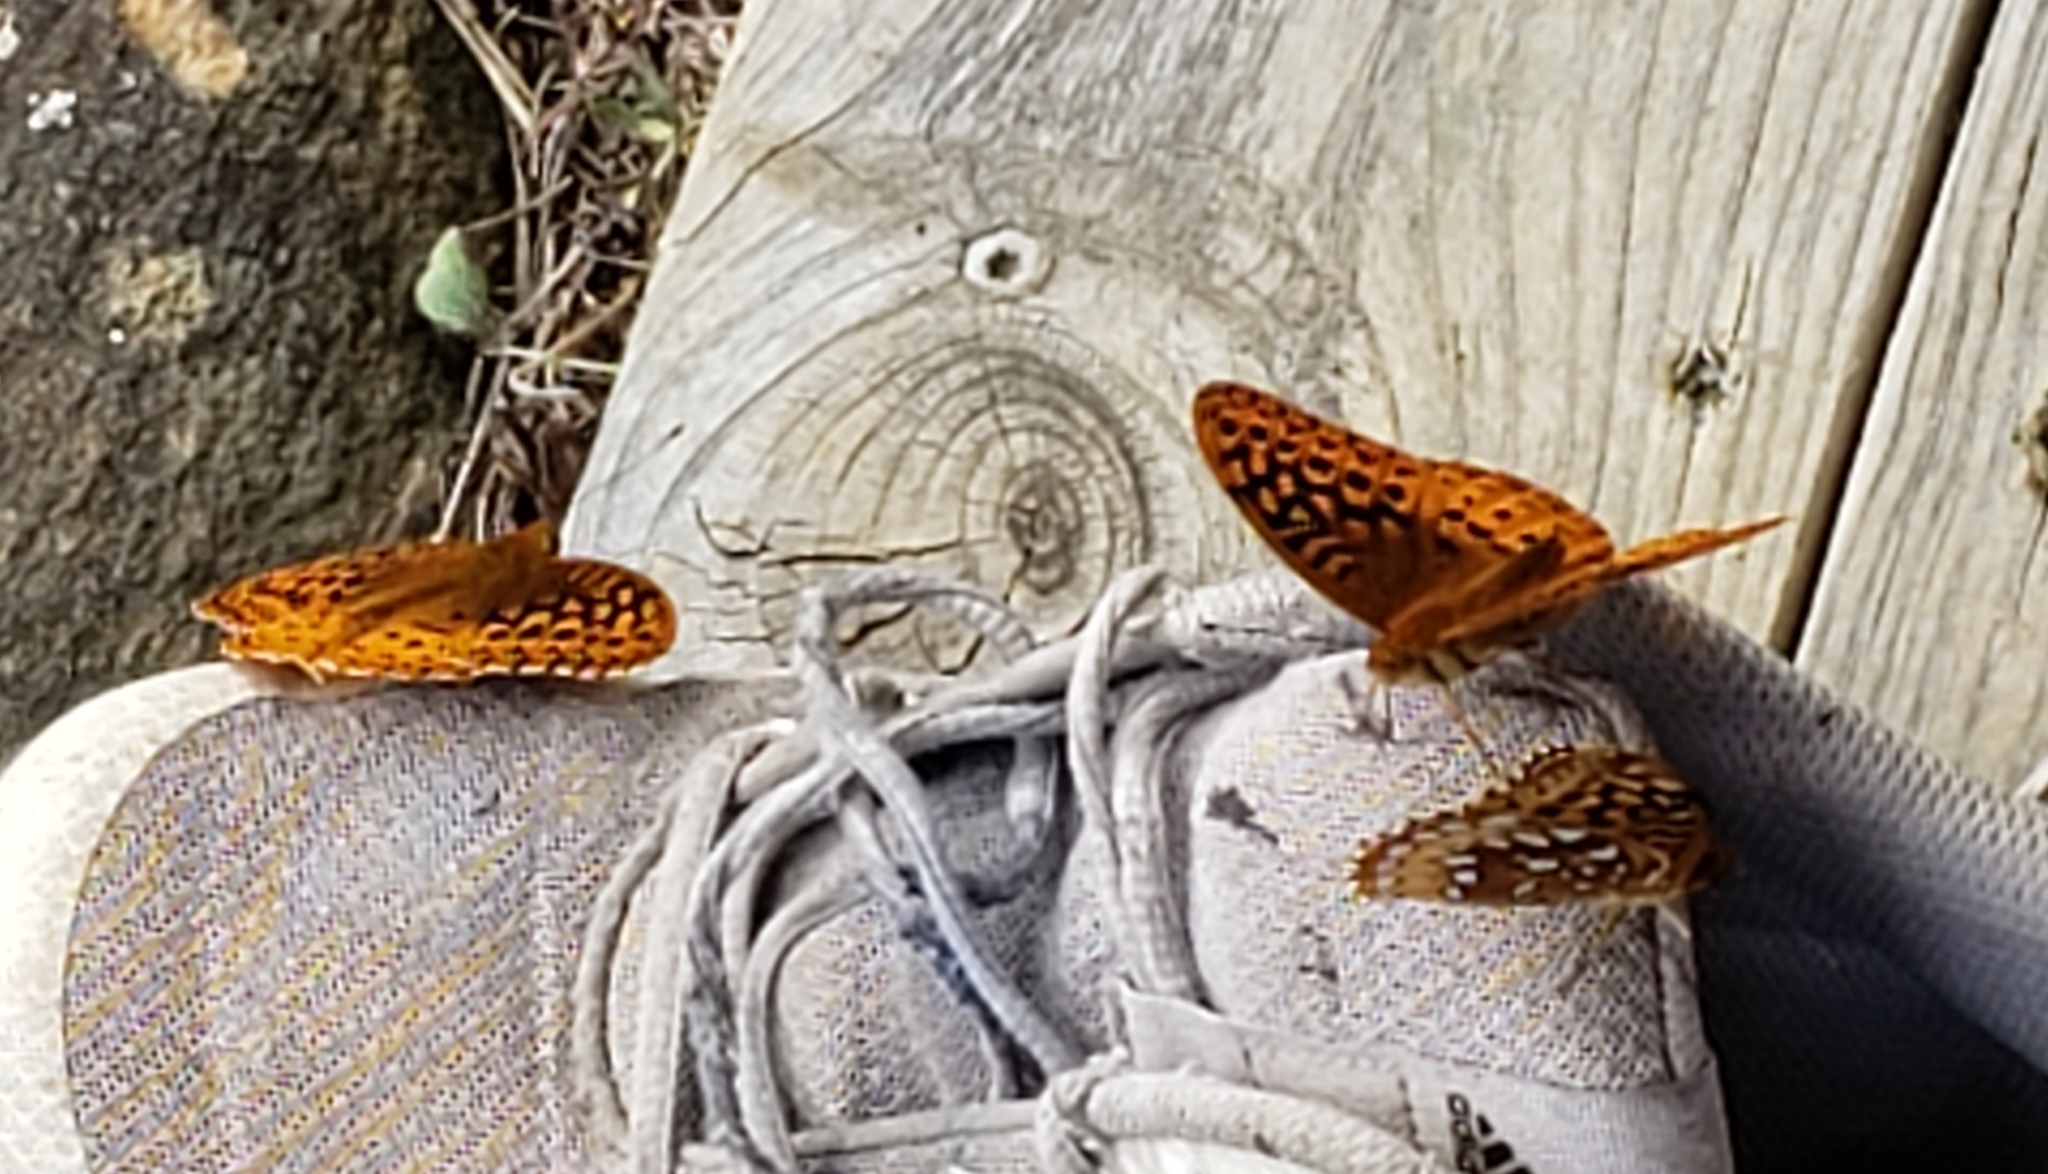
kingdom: Animalia
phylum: Arthropoda
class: Insecta
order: Lepidoptera
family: Nymphalidae
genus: Speyeria
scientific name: Speyeria cybele
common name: Great spangled fritillary
